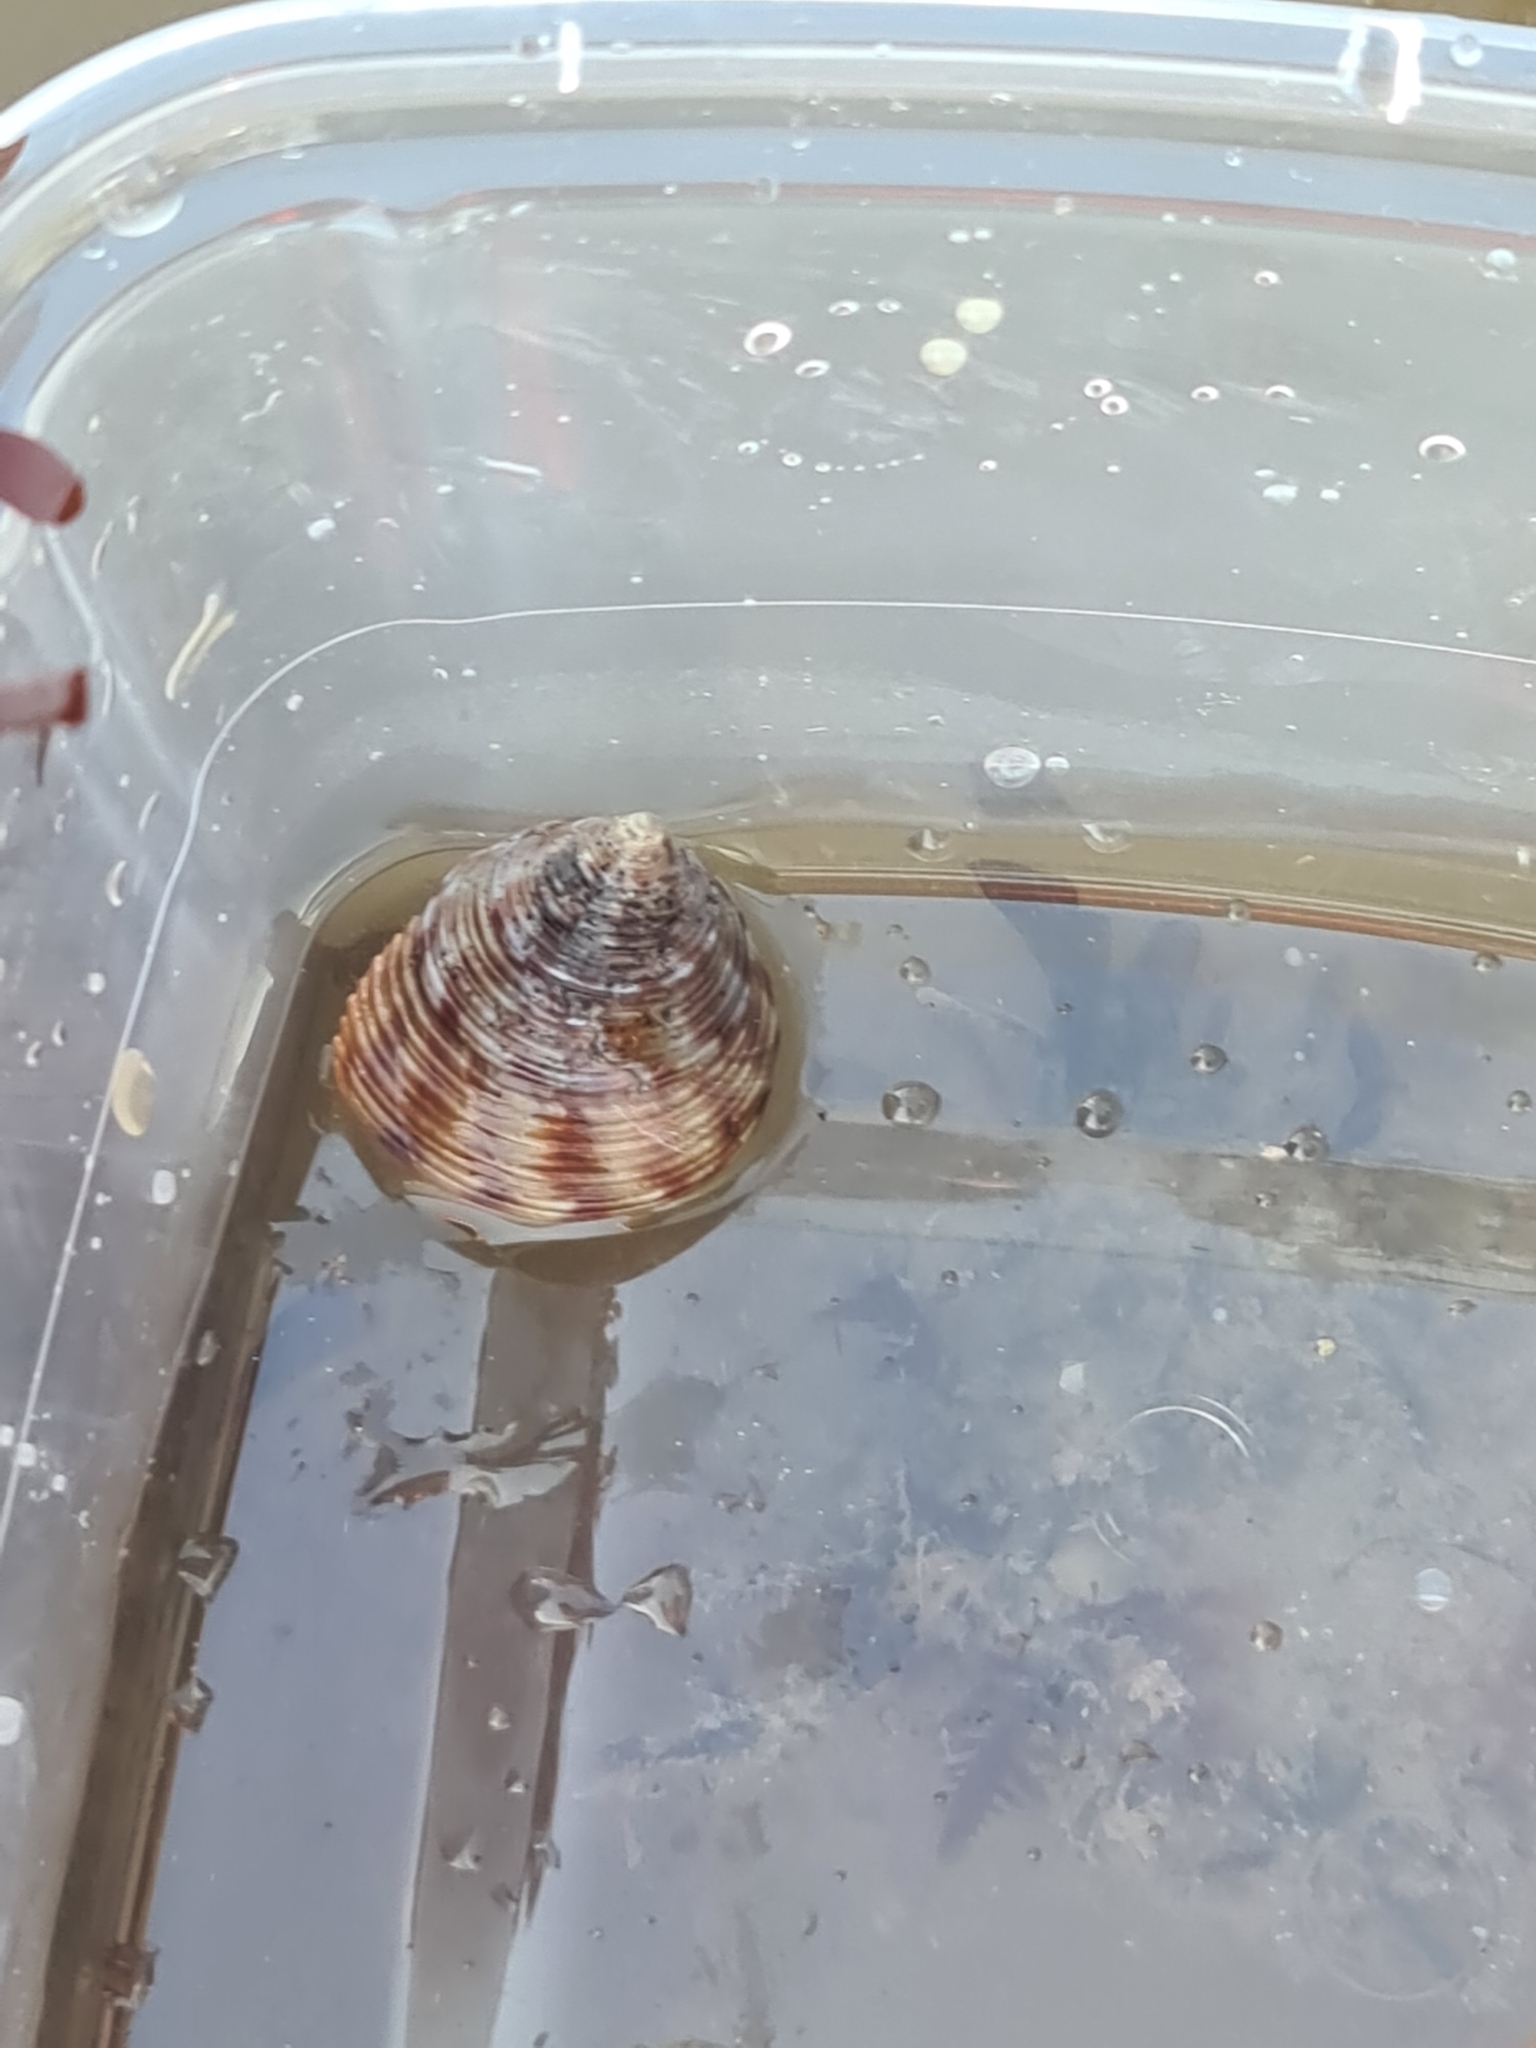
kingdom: Animalia
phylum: Mollusca
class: Gastropoda
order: Trochida
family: Calliostomatidae
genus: Calliostoma
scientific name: Calliostoma zizyphinum
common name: Painted top shell
